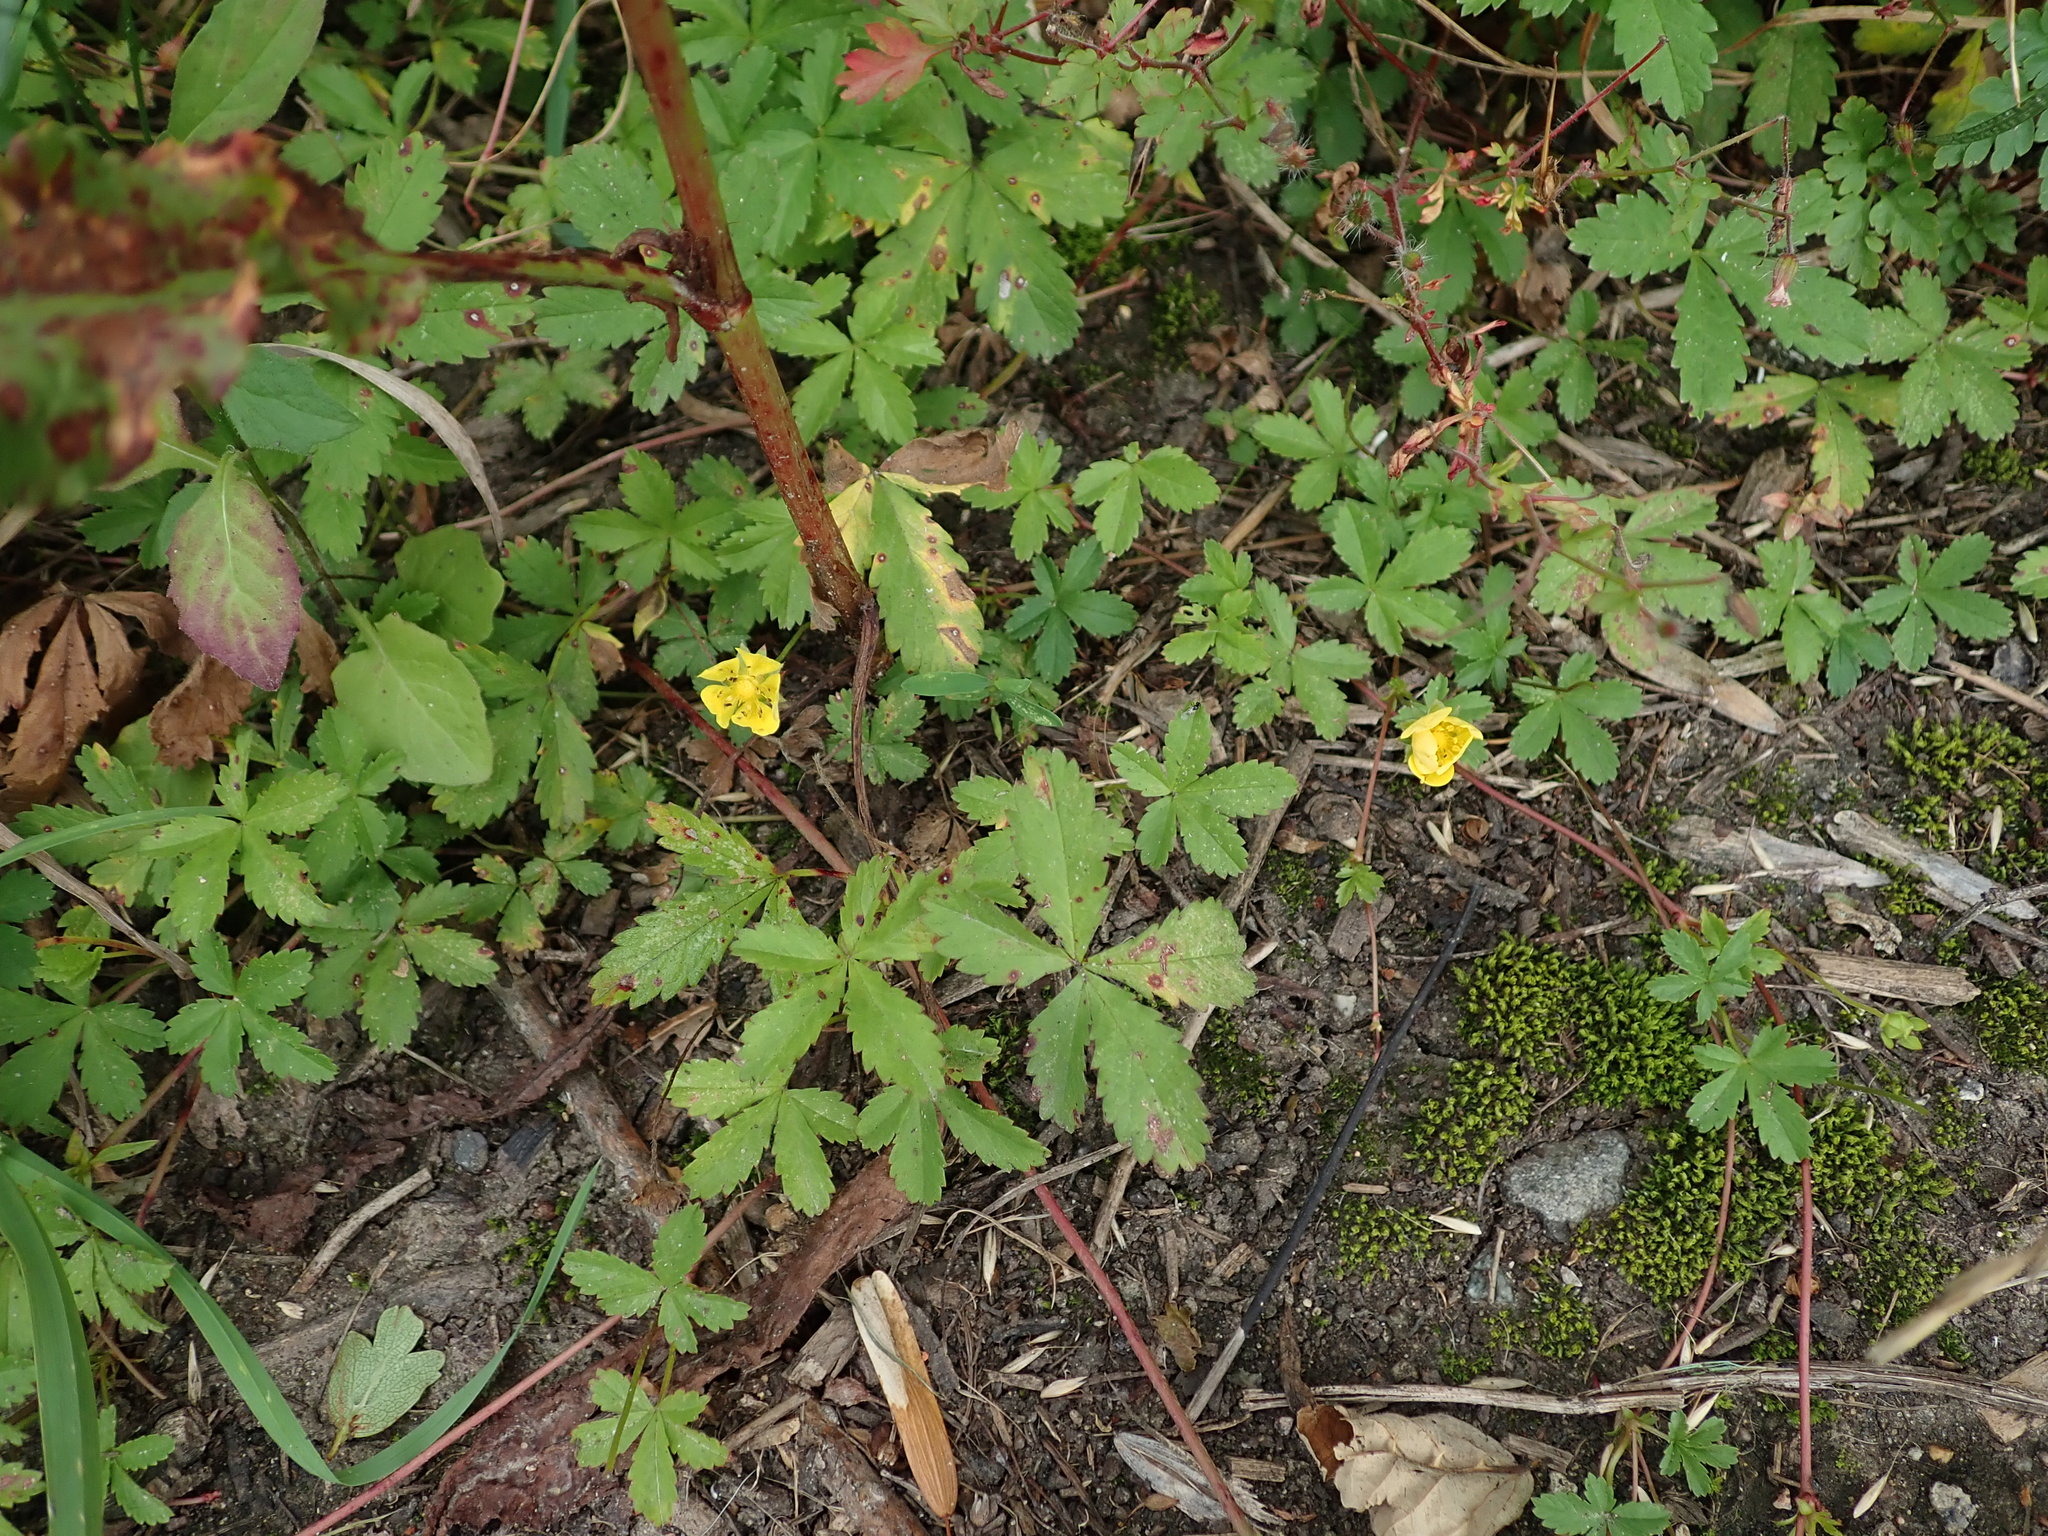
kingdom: Plantae
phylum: Tracheophyta
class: Magnoliopsida
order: Rosales
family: Rosaceae
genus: Potentilla
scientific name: Potentilla reptans
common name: Creeping cinquefoil
